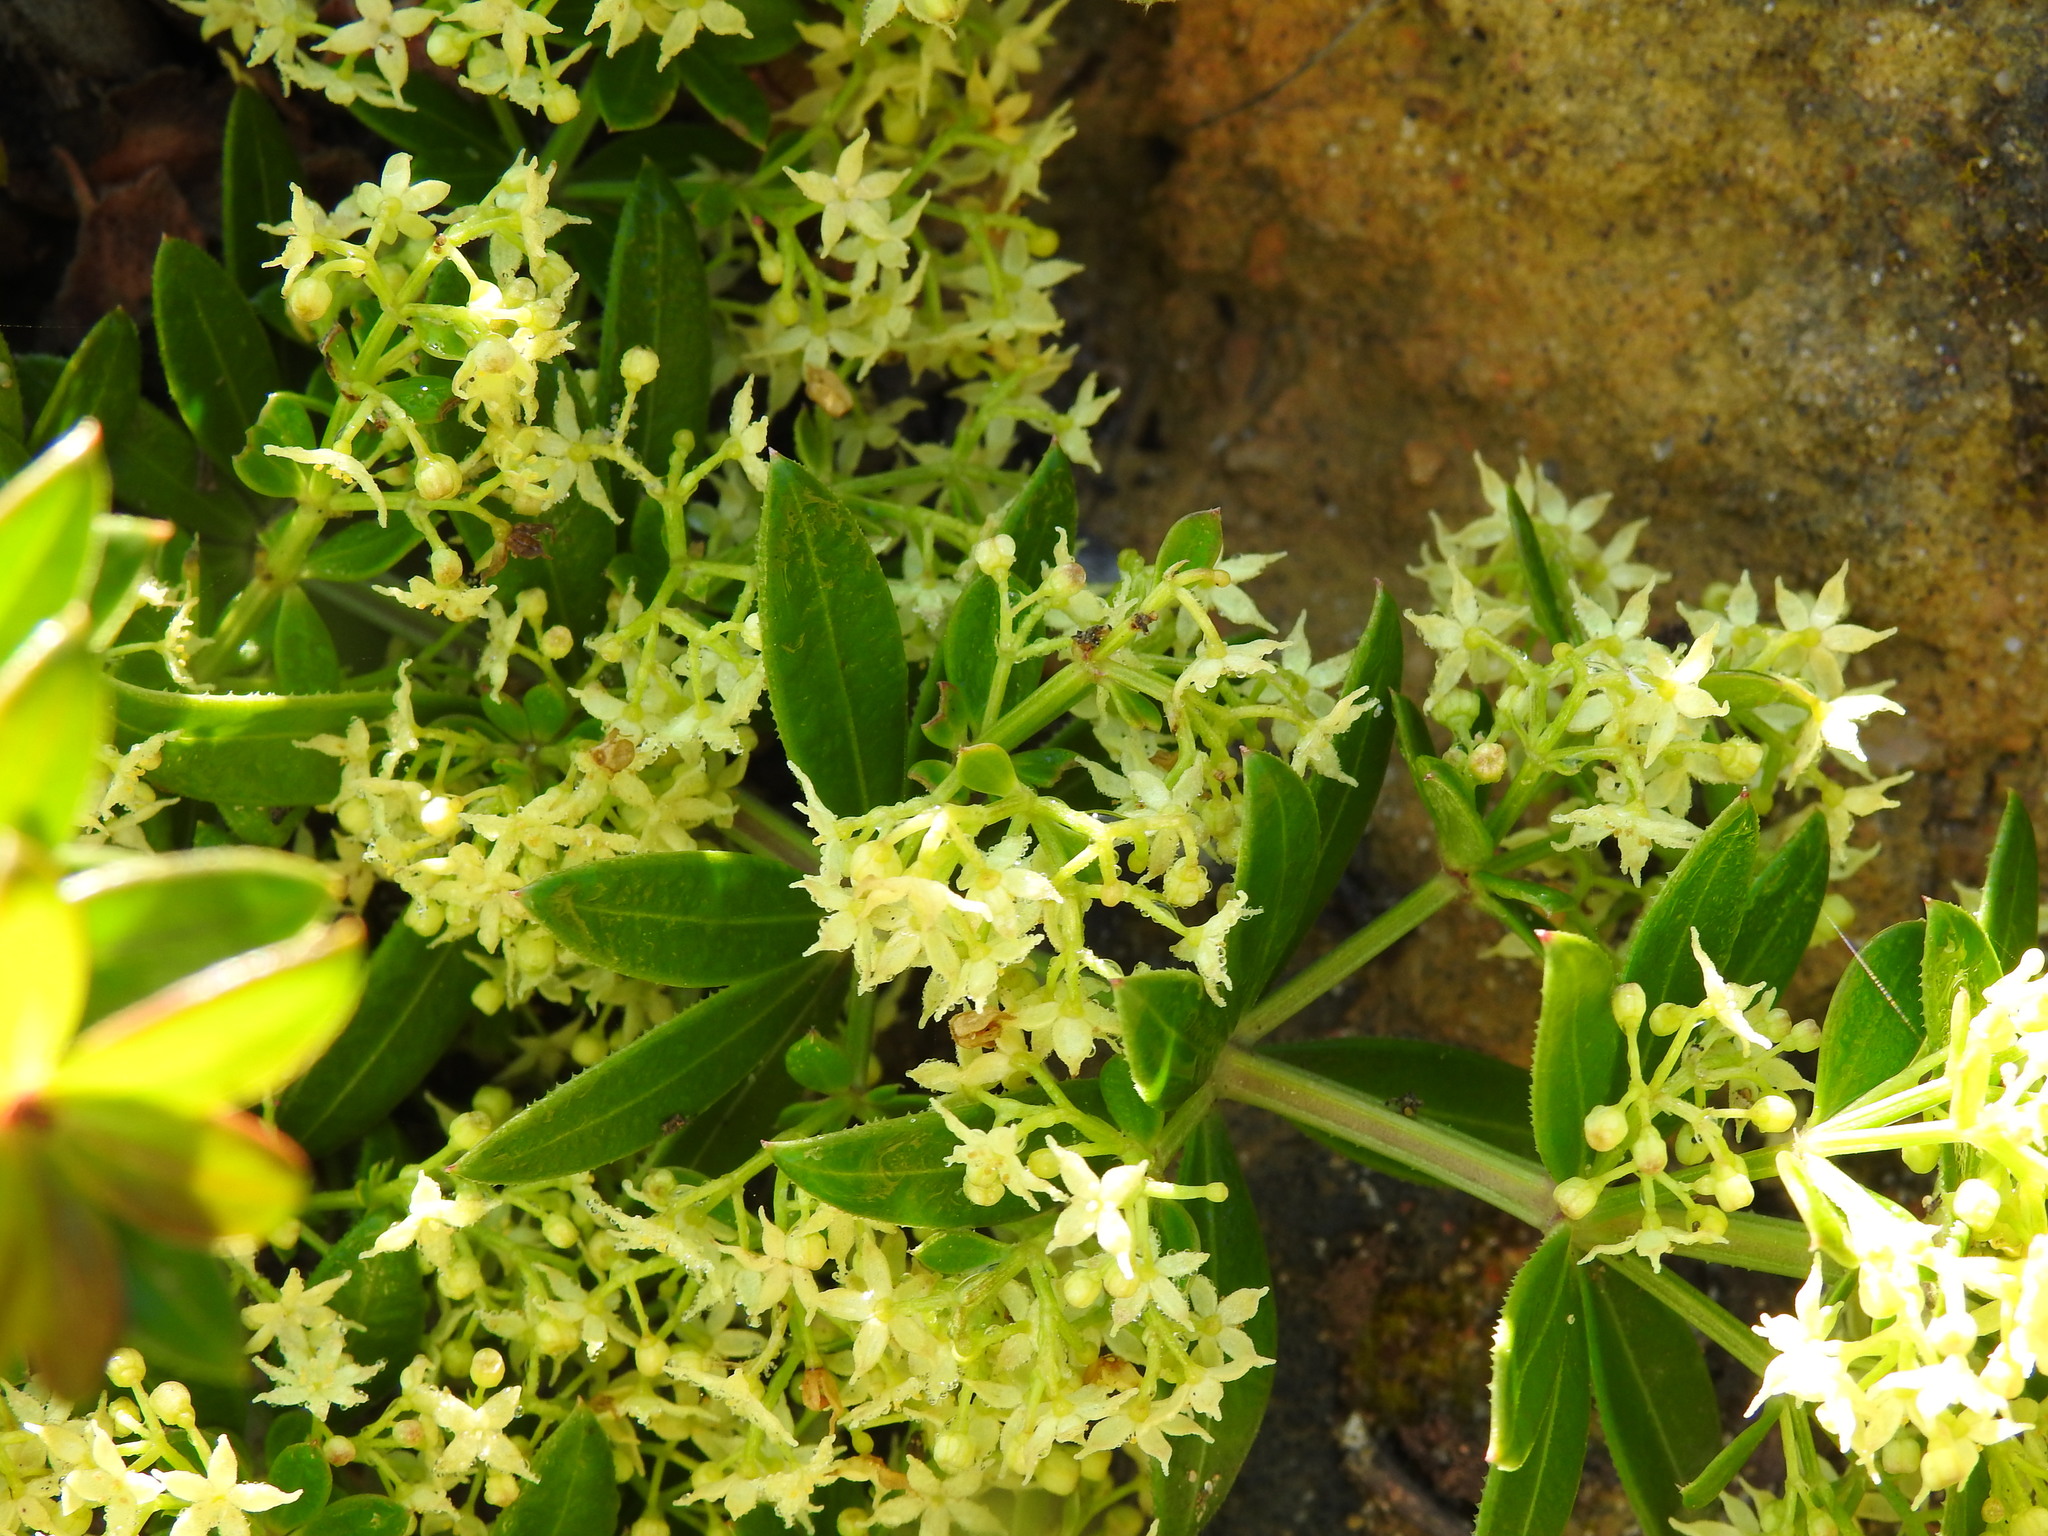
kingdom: Plantae
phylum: Tracheophyta
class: Magnoliopsida
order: Gentianales
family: Rubiaceae
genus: Rubia
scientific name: Rubia peregrina
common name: Wild madder
